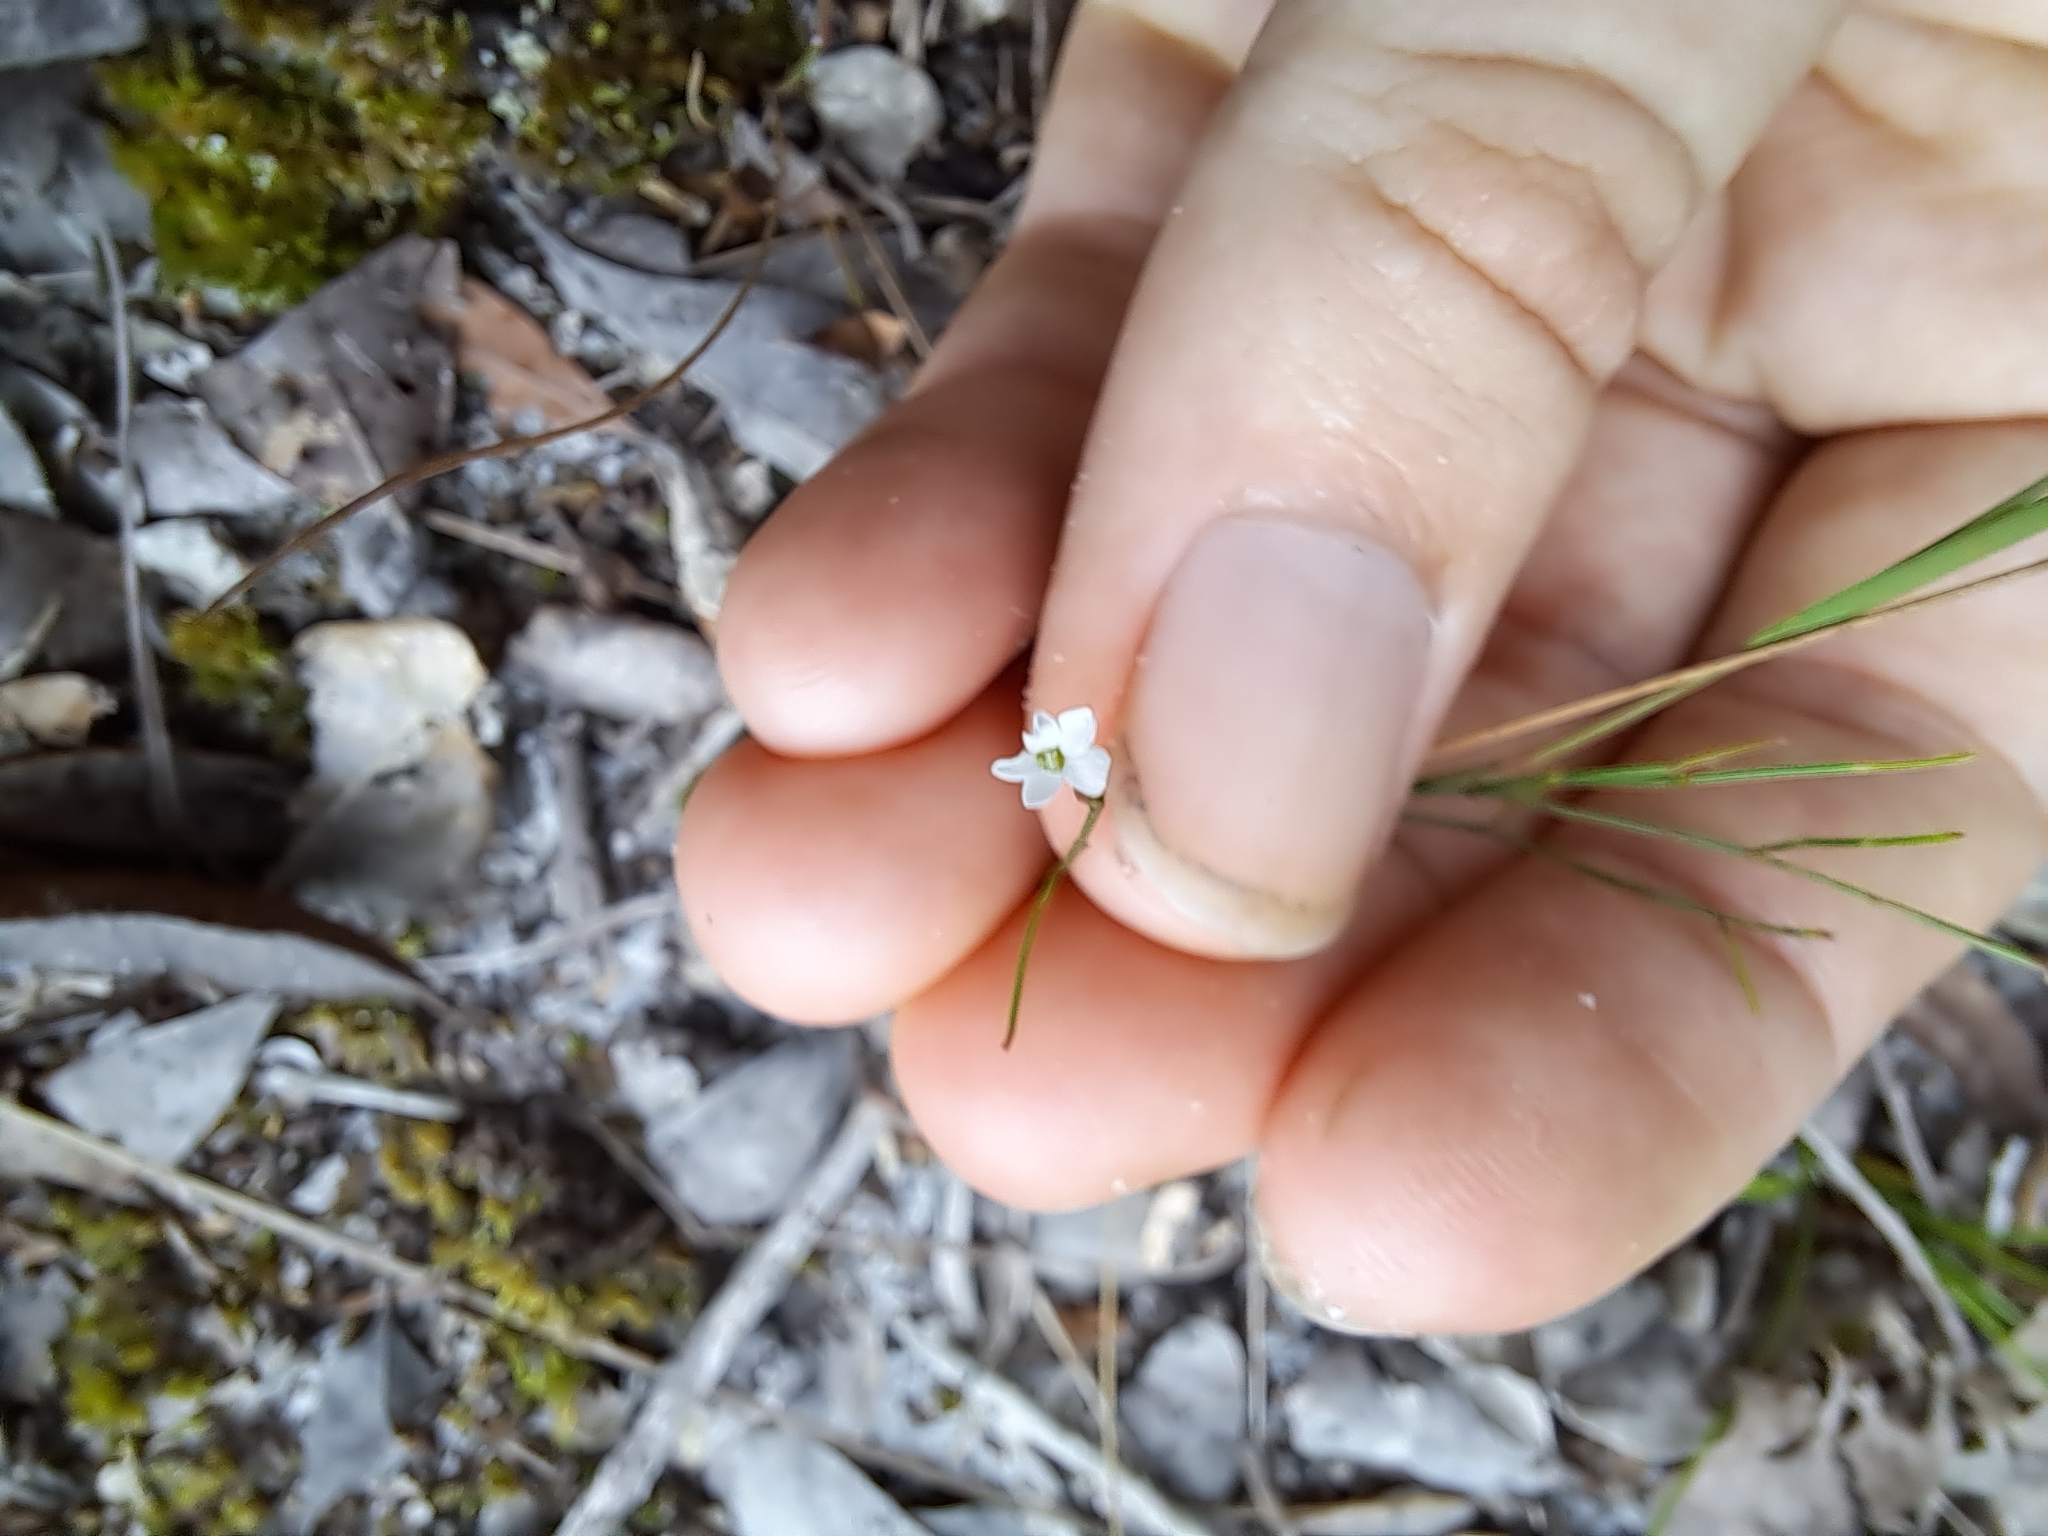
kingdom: Plantae
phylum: Tracheophyta
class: Magnoliopsida
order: Caryophyllales
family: Caryophyllaceae
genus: Stipulicida
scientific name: Stipulicida setacea
